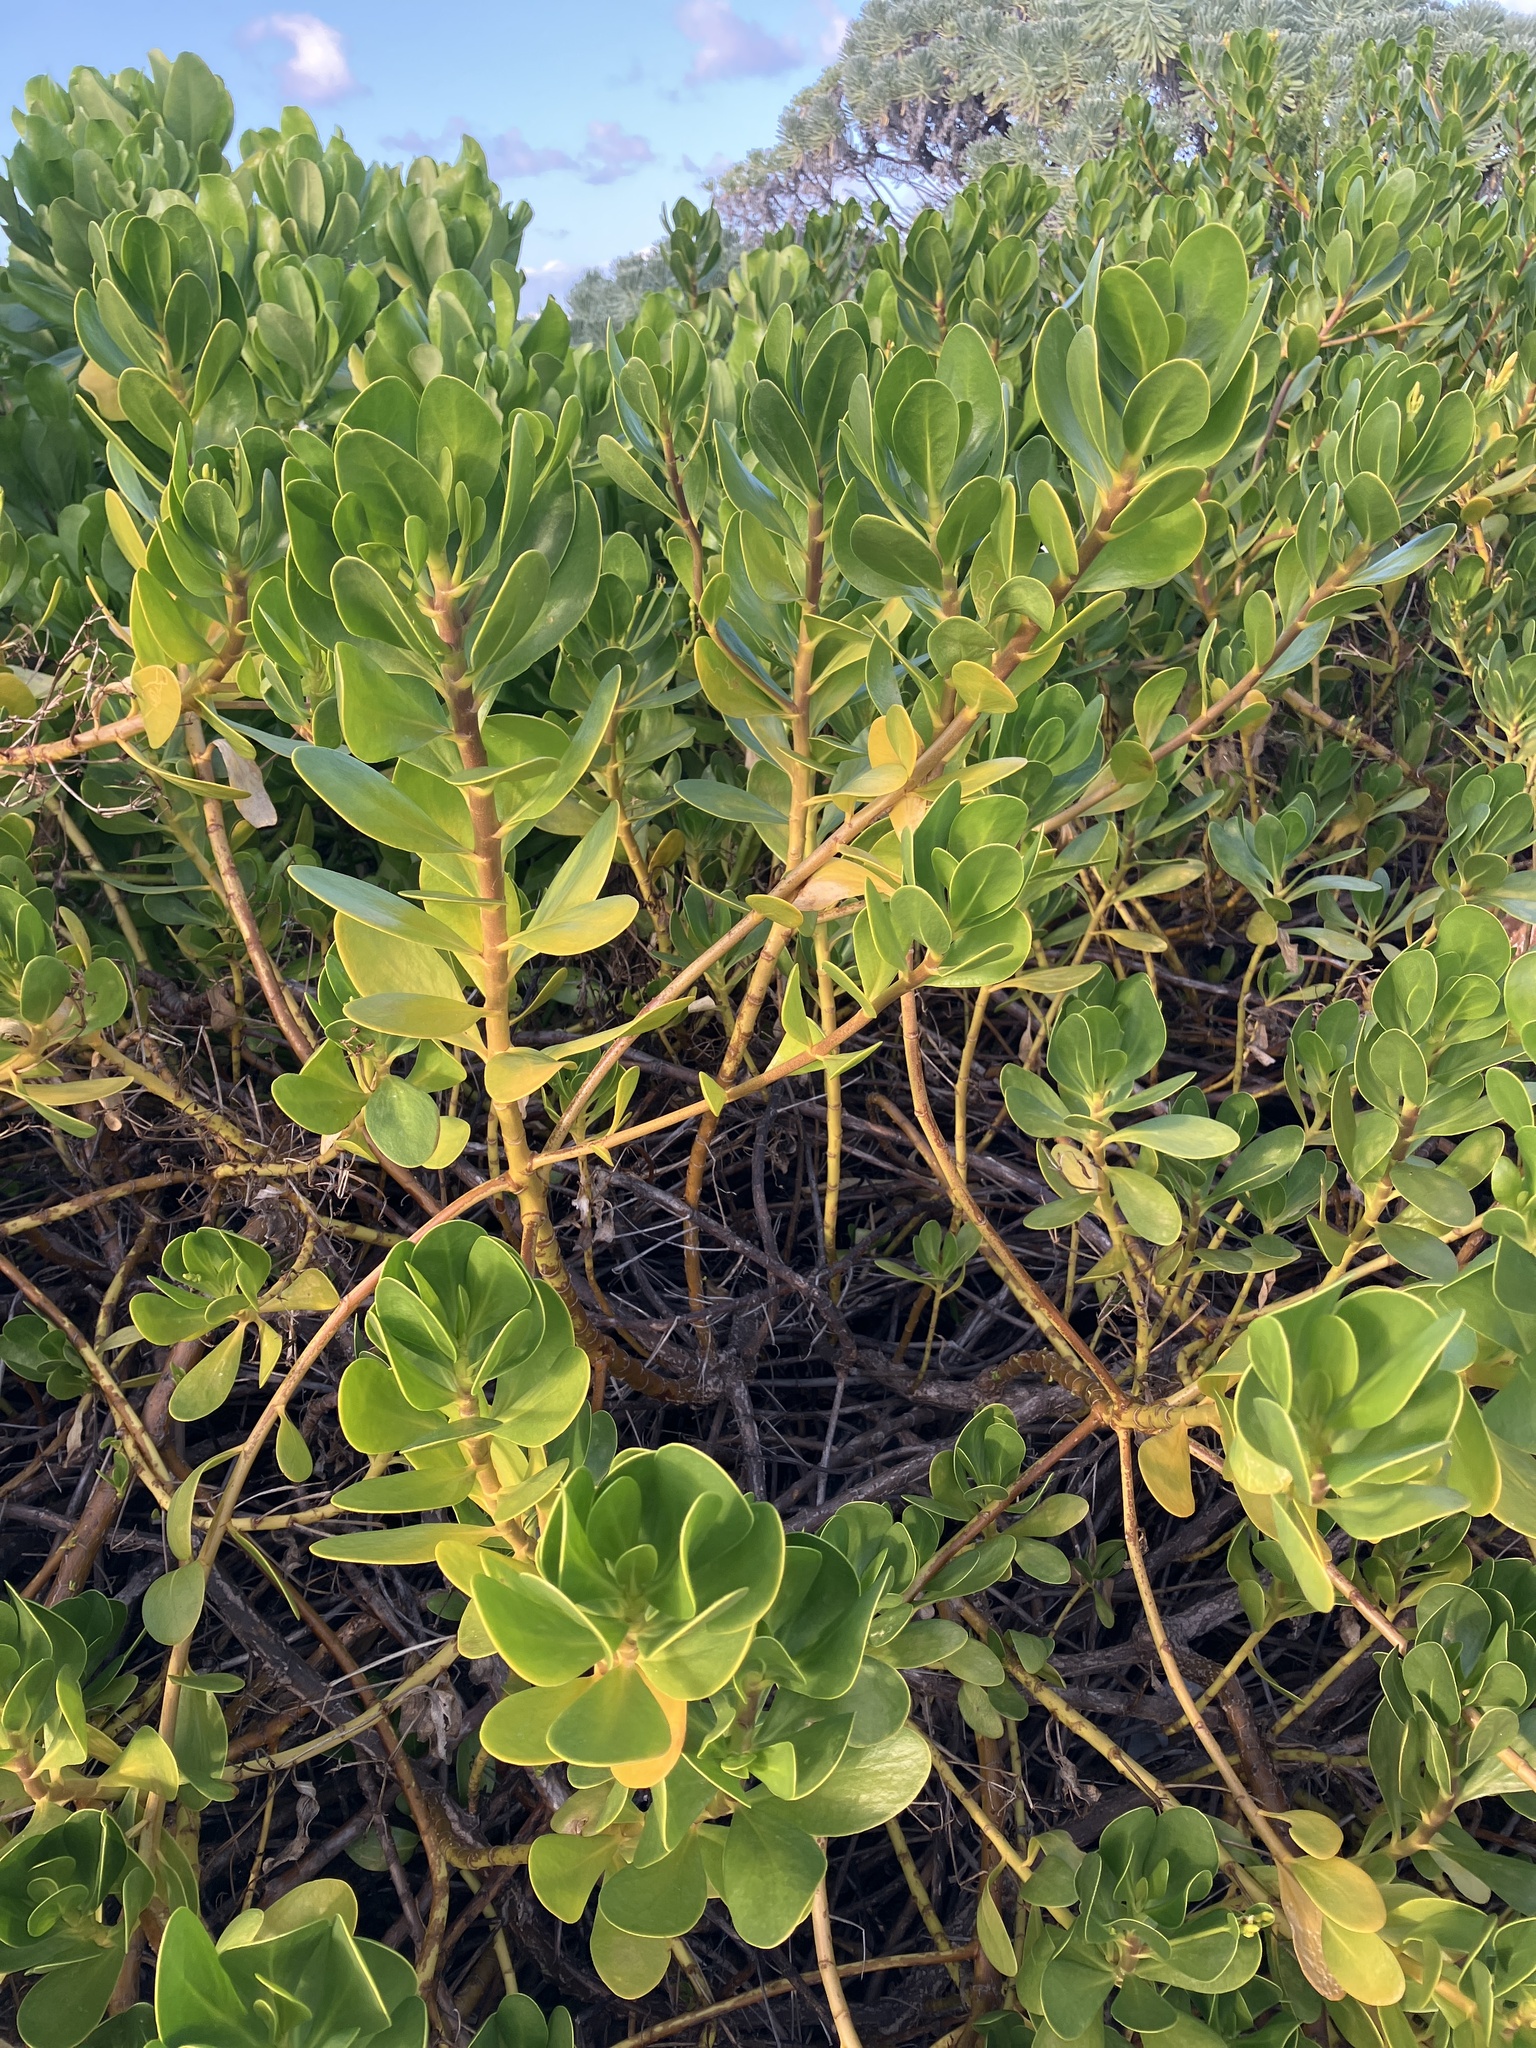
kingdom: Plantae
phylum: Tracheophyta
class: Magnoliopsida
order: Asterales
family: Goodeniaceae
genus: Scaevola
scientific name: Scaevola plumieri
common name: Gull feed
